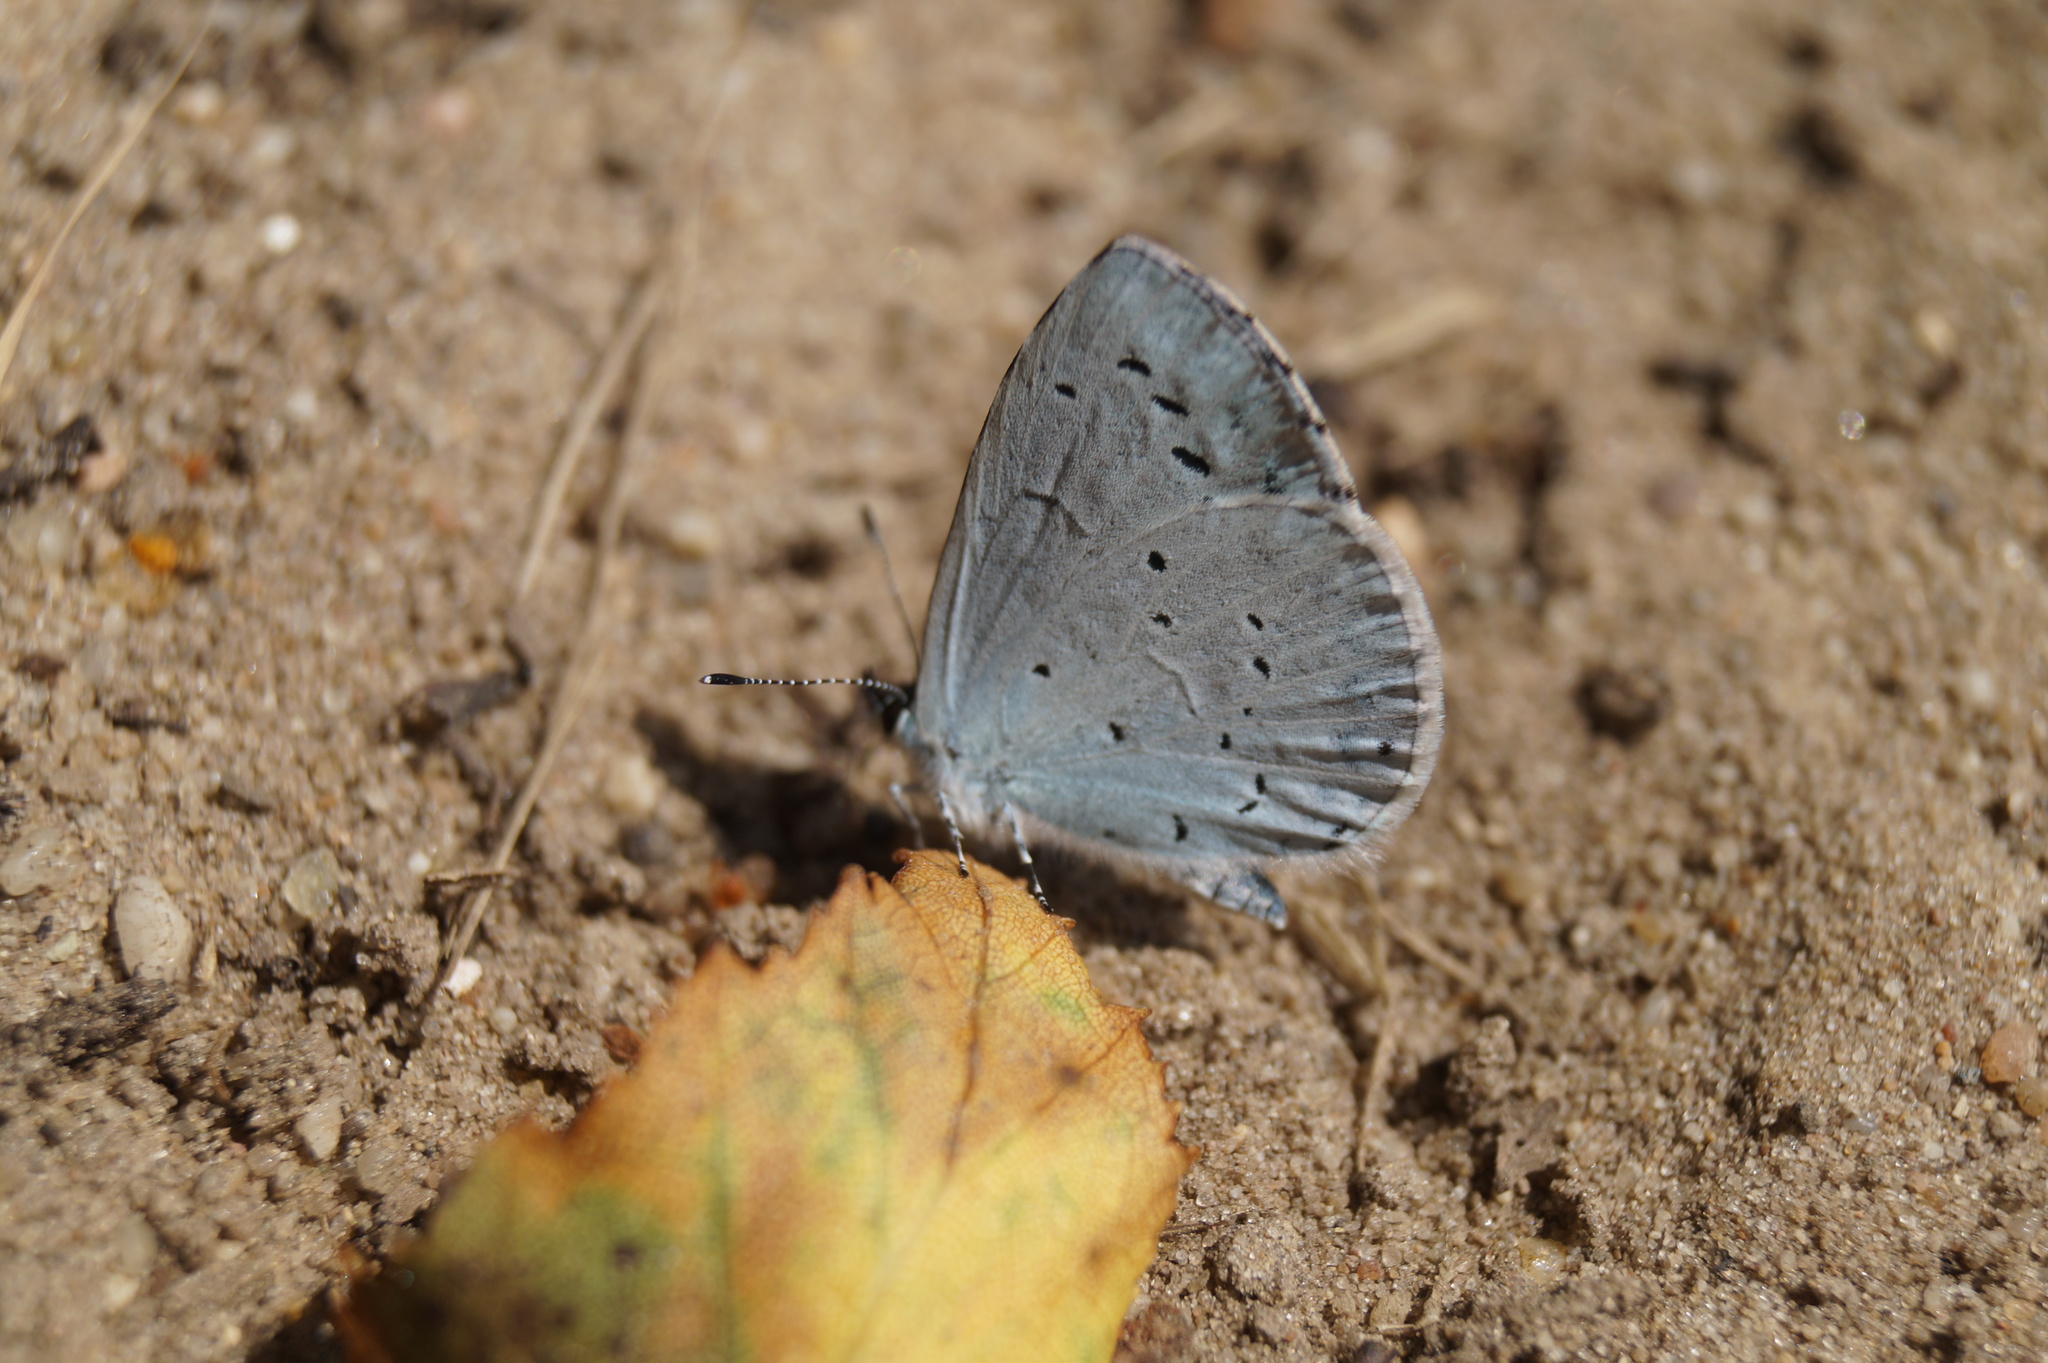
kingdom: Animalia
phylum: Arthropoda
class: Insecta
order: Lepidoptera
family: Lycaenidae
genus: Celastrina
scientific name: Celastrina argiolus
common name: Holly blue
